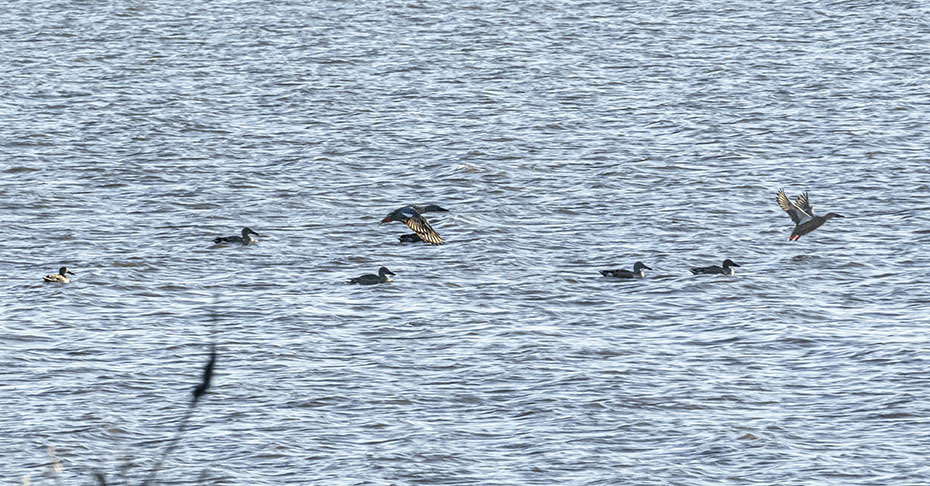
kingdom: Animalia
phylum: Chordata
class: Aves
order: Anseriformes
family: Anatidae
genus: Spatula
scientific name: Spatula clypeata
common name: Northern shoveler
